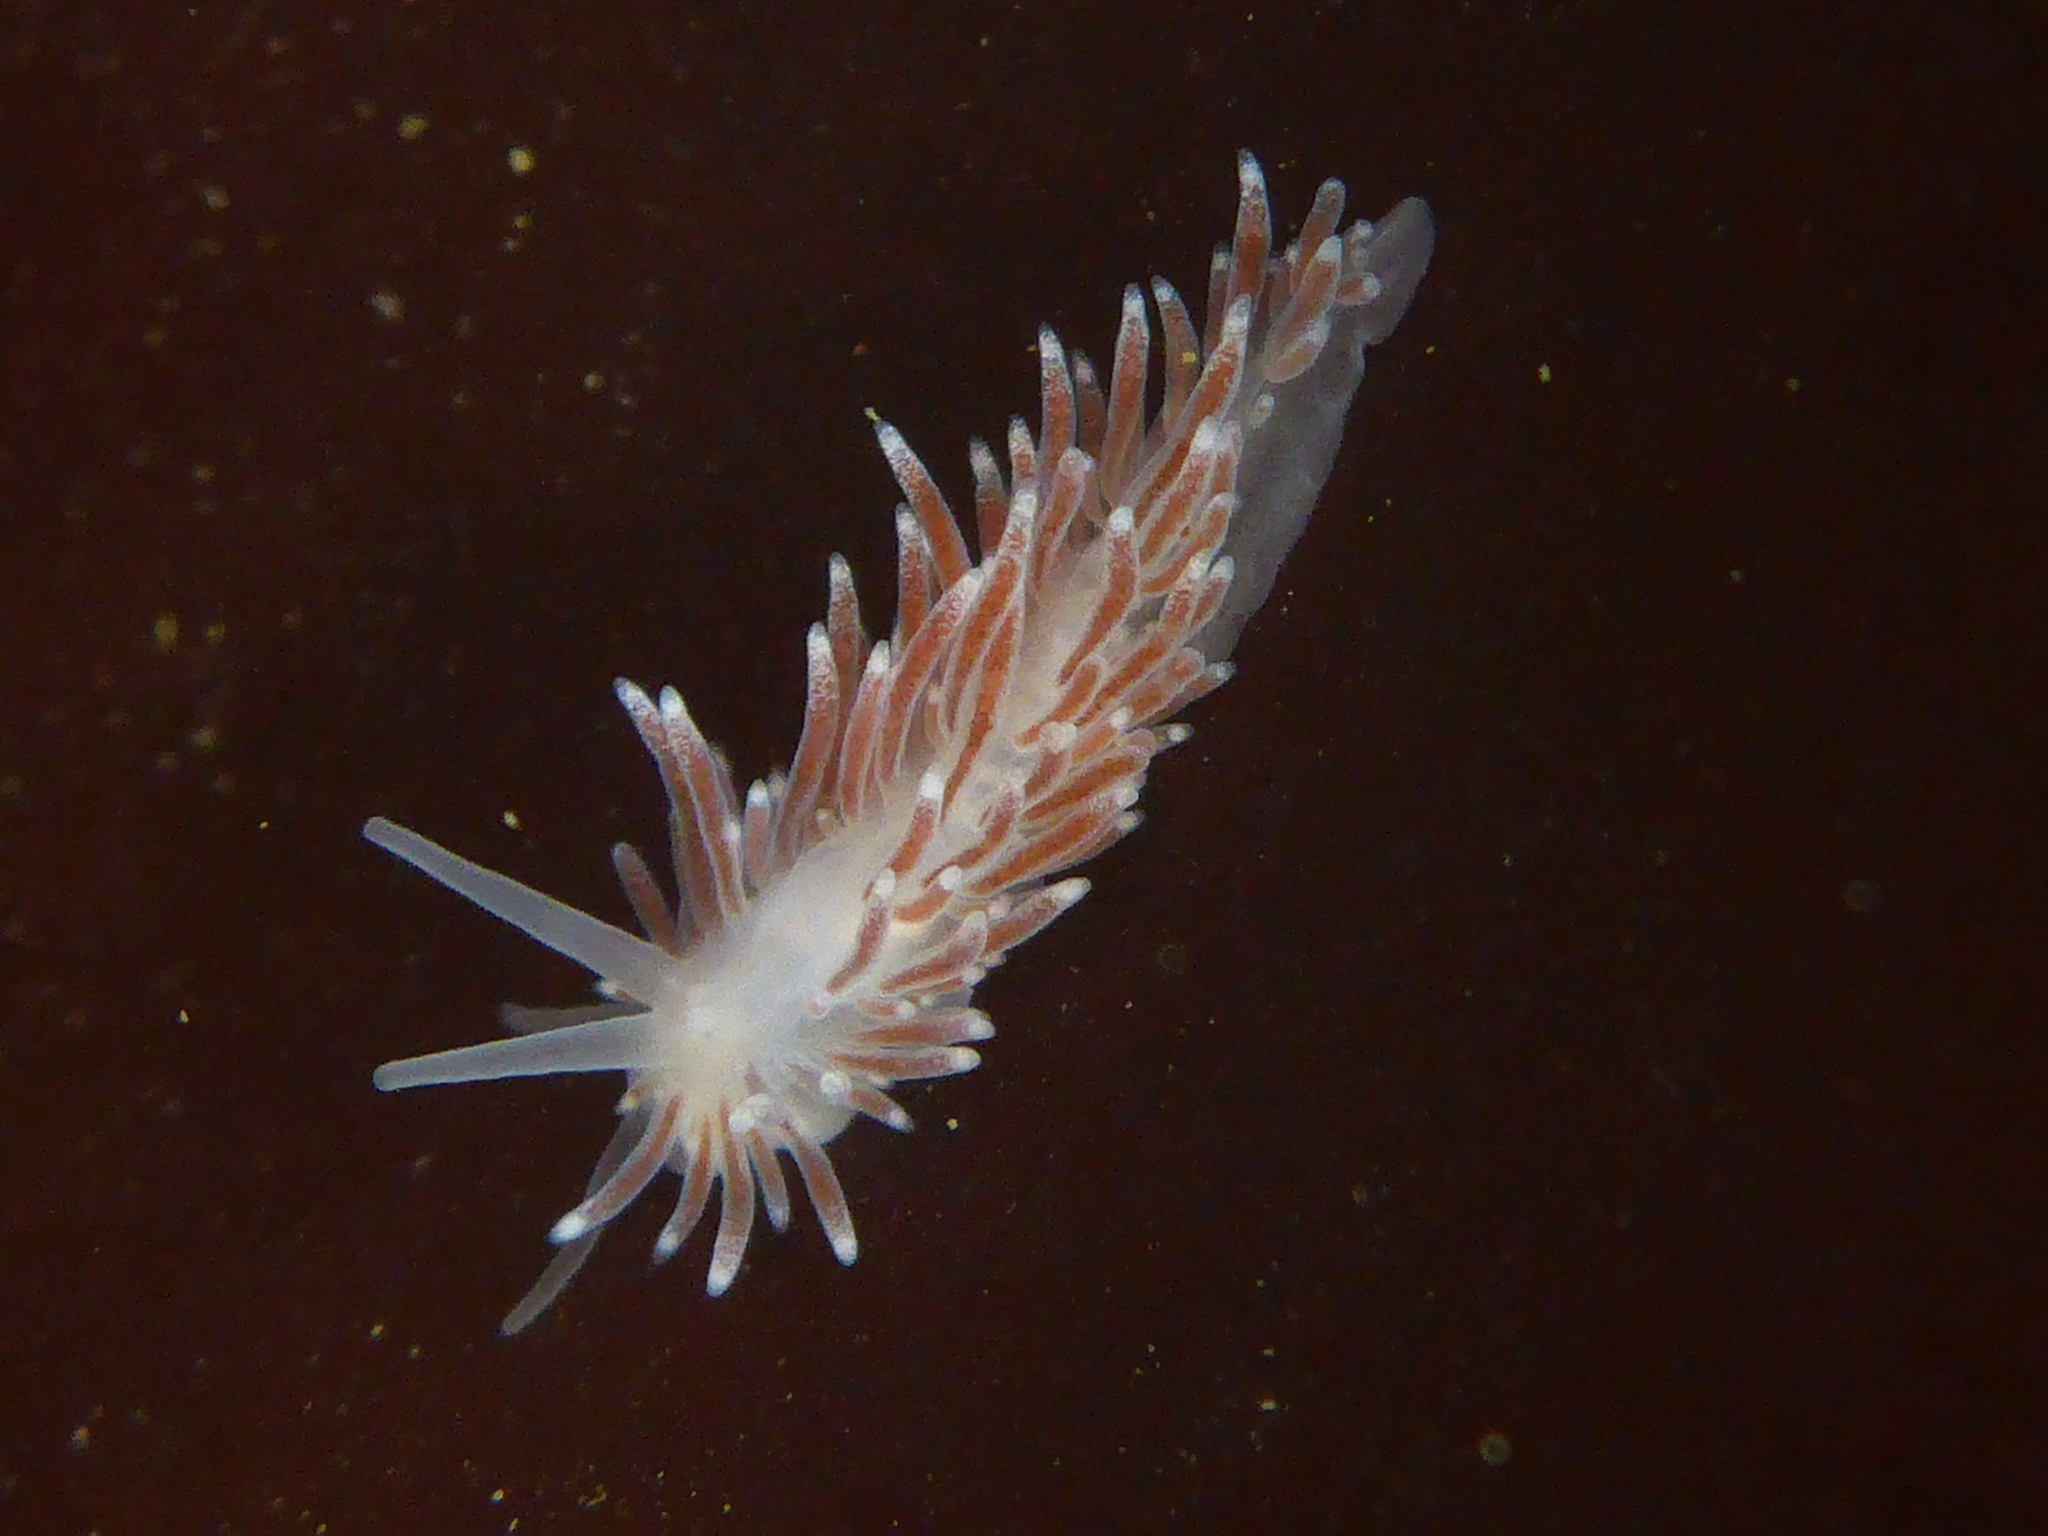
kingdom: Animalia
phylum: Mollusca
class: Gastropoda
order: Nudibranchia
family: Cuthonidae
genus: Cuthona
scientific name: Cuthona divae
